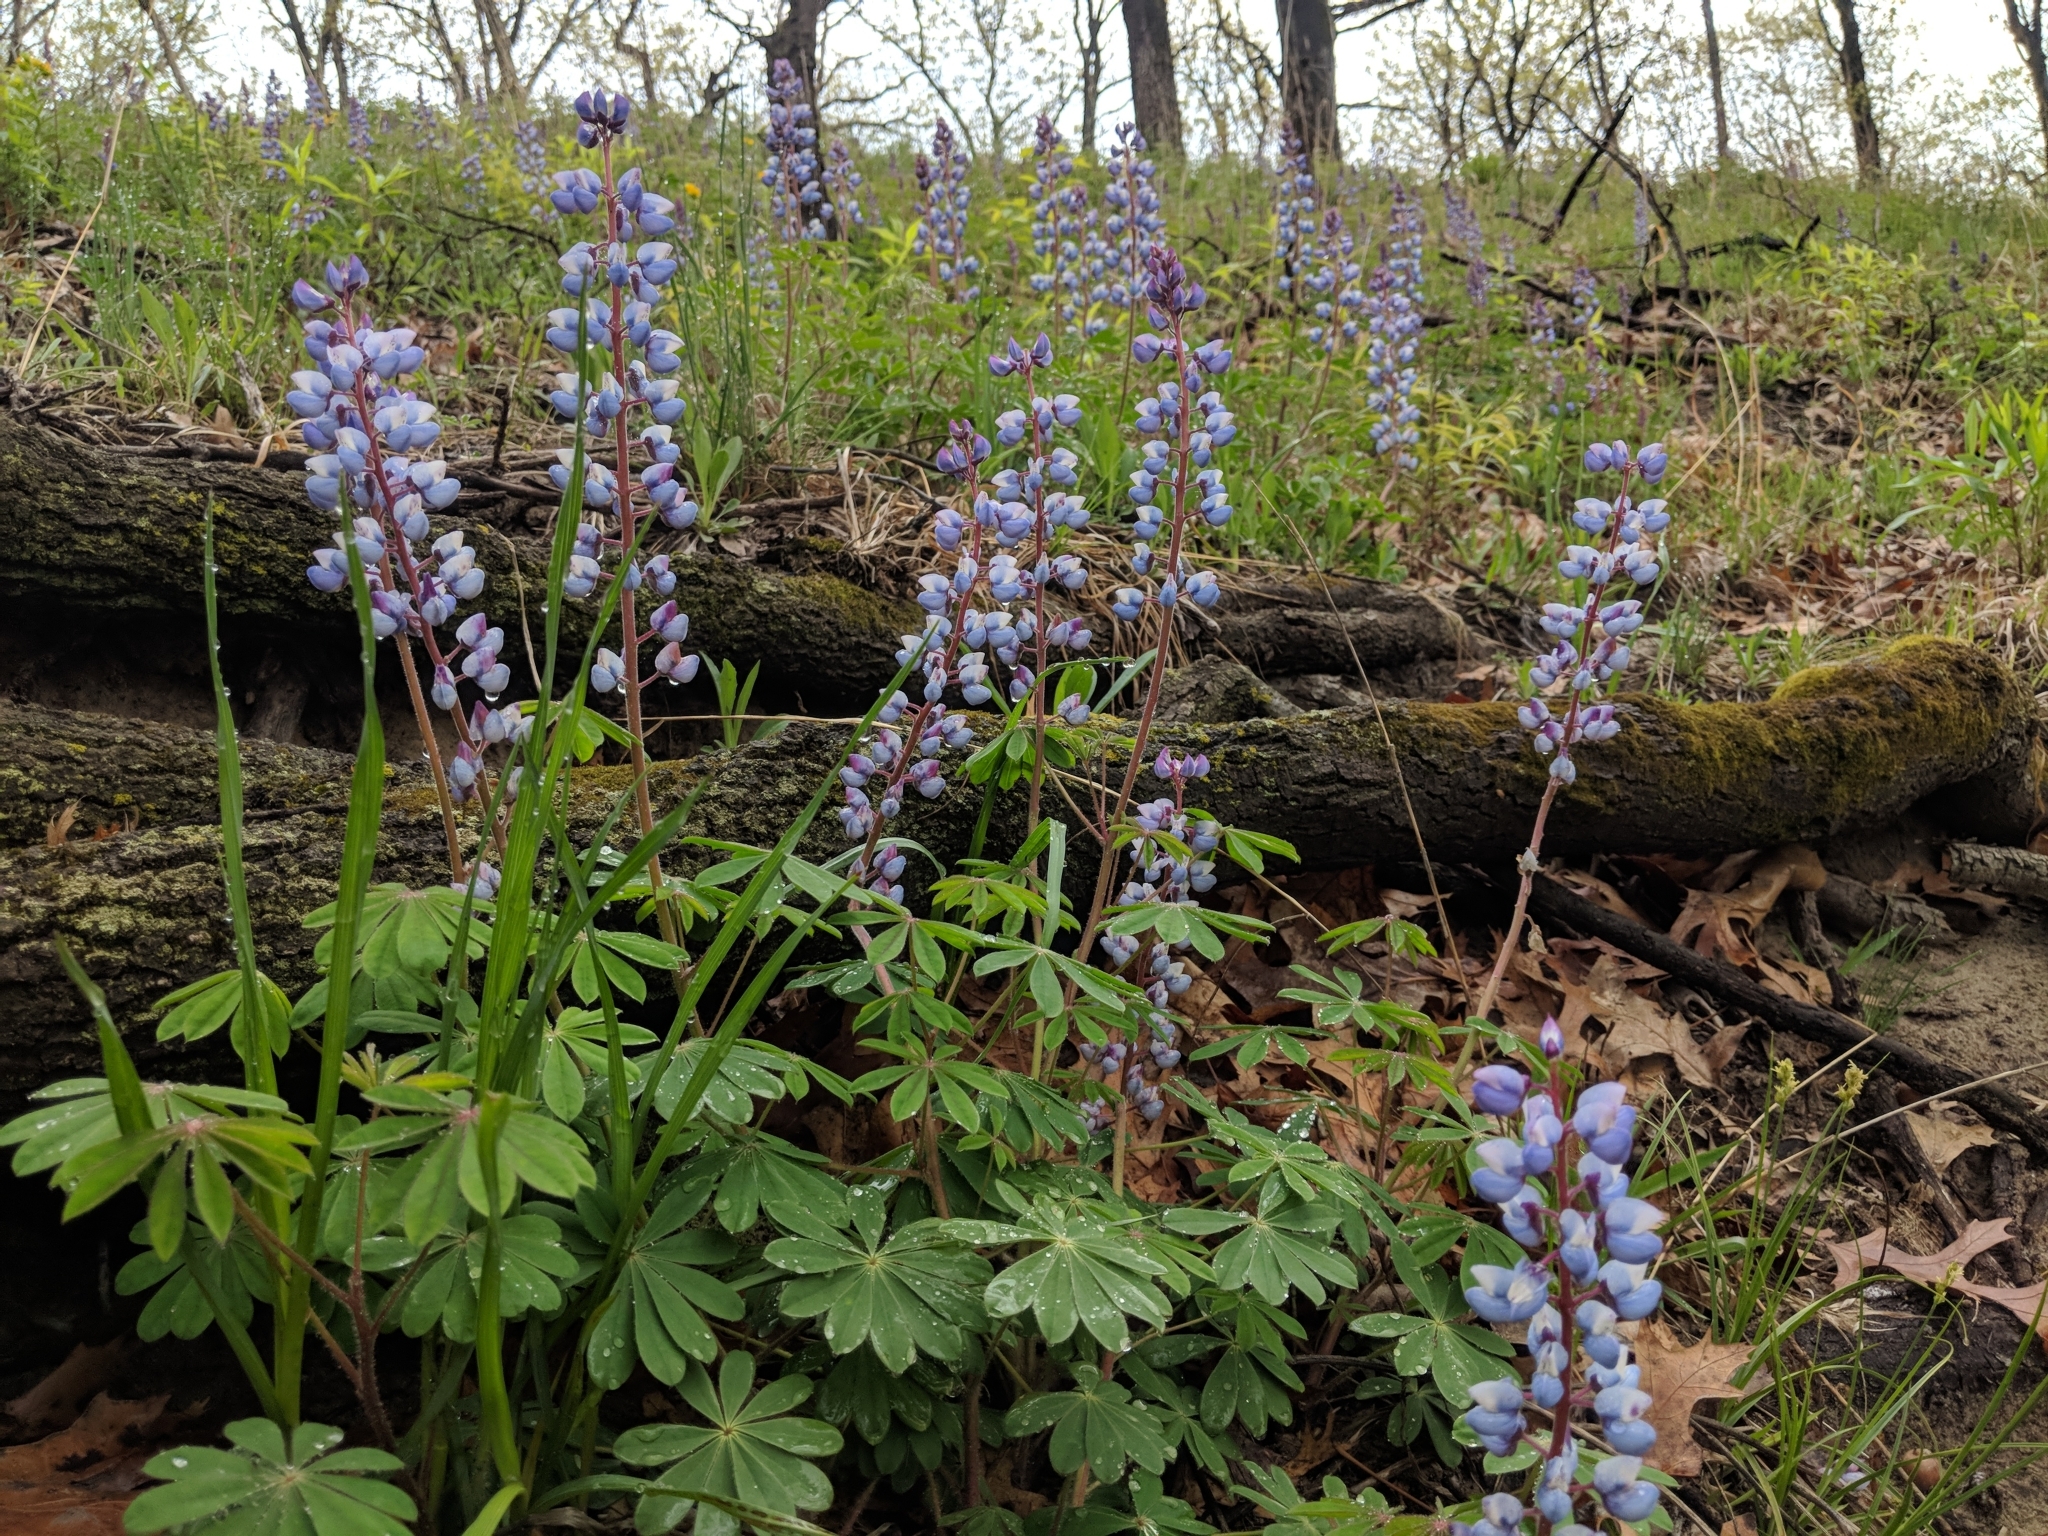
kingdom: Plantae
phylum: Tracheophyta
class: Magnoliopsida
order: Fabales
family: Fabaceae
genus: Lupinus
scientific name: Lupinus perennis
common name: Sundial lupine
